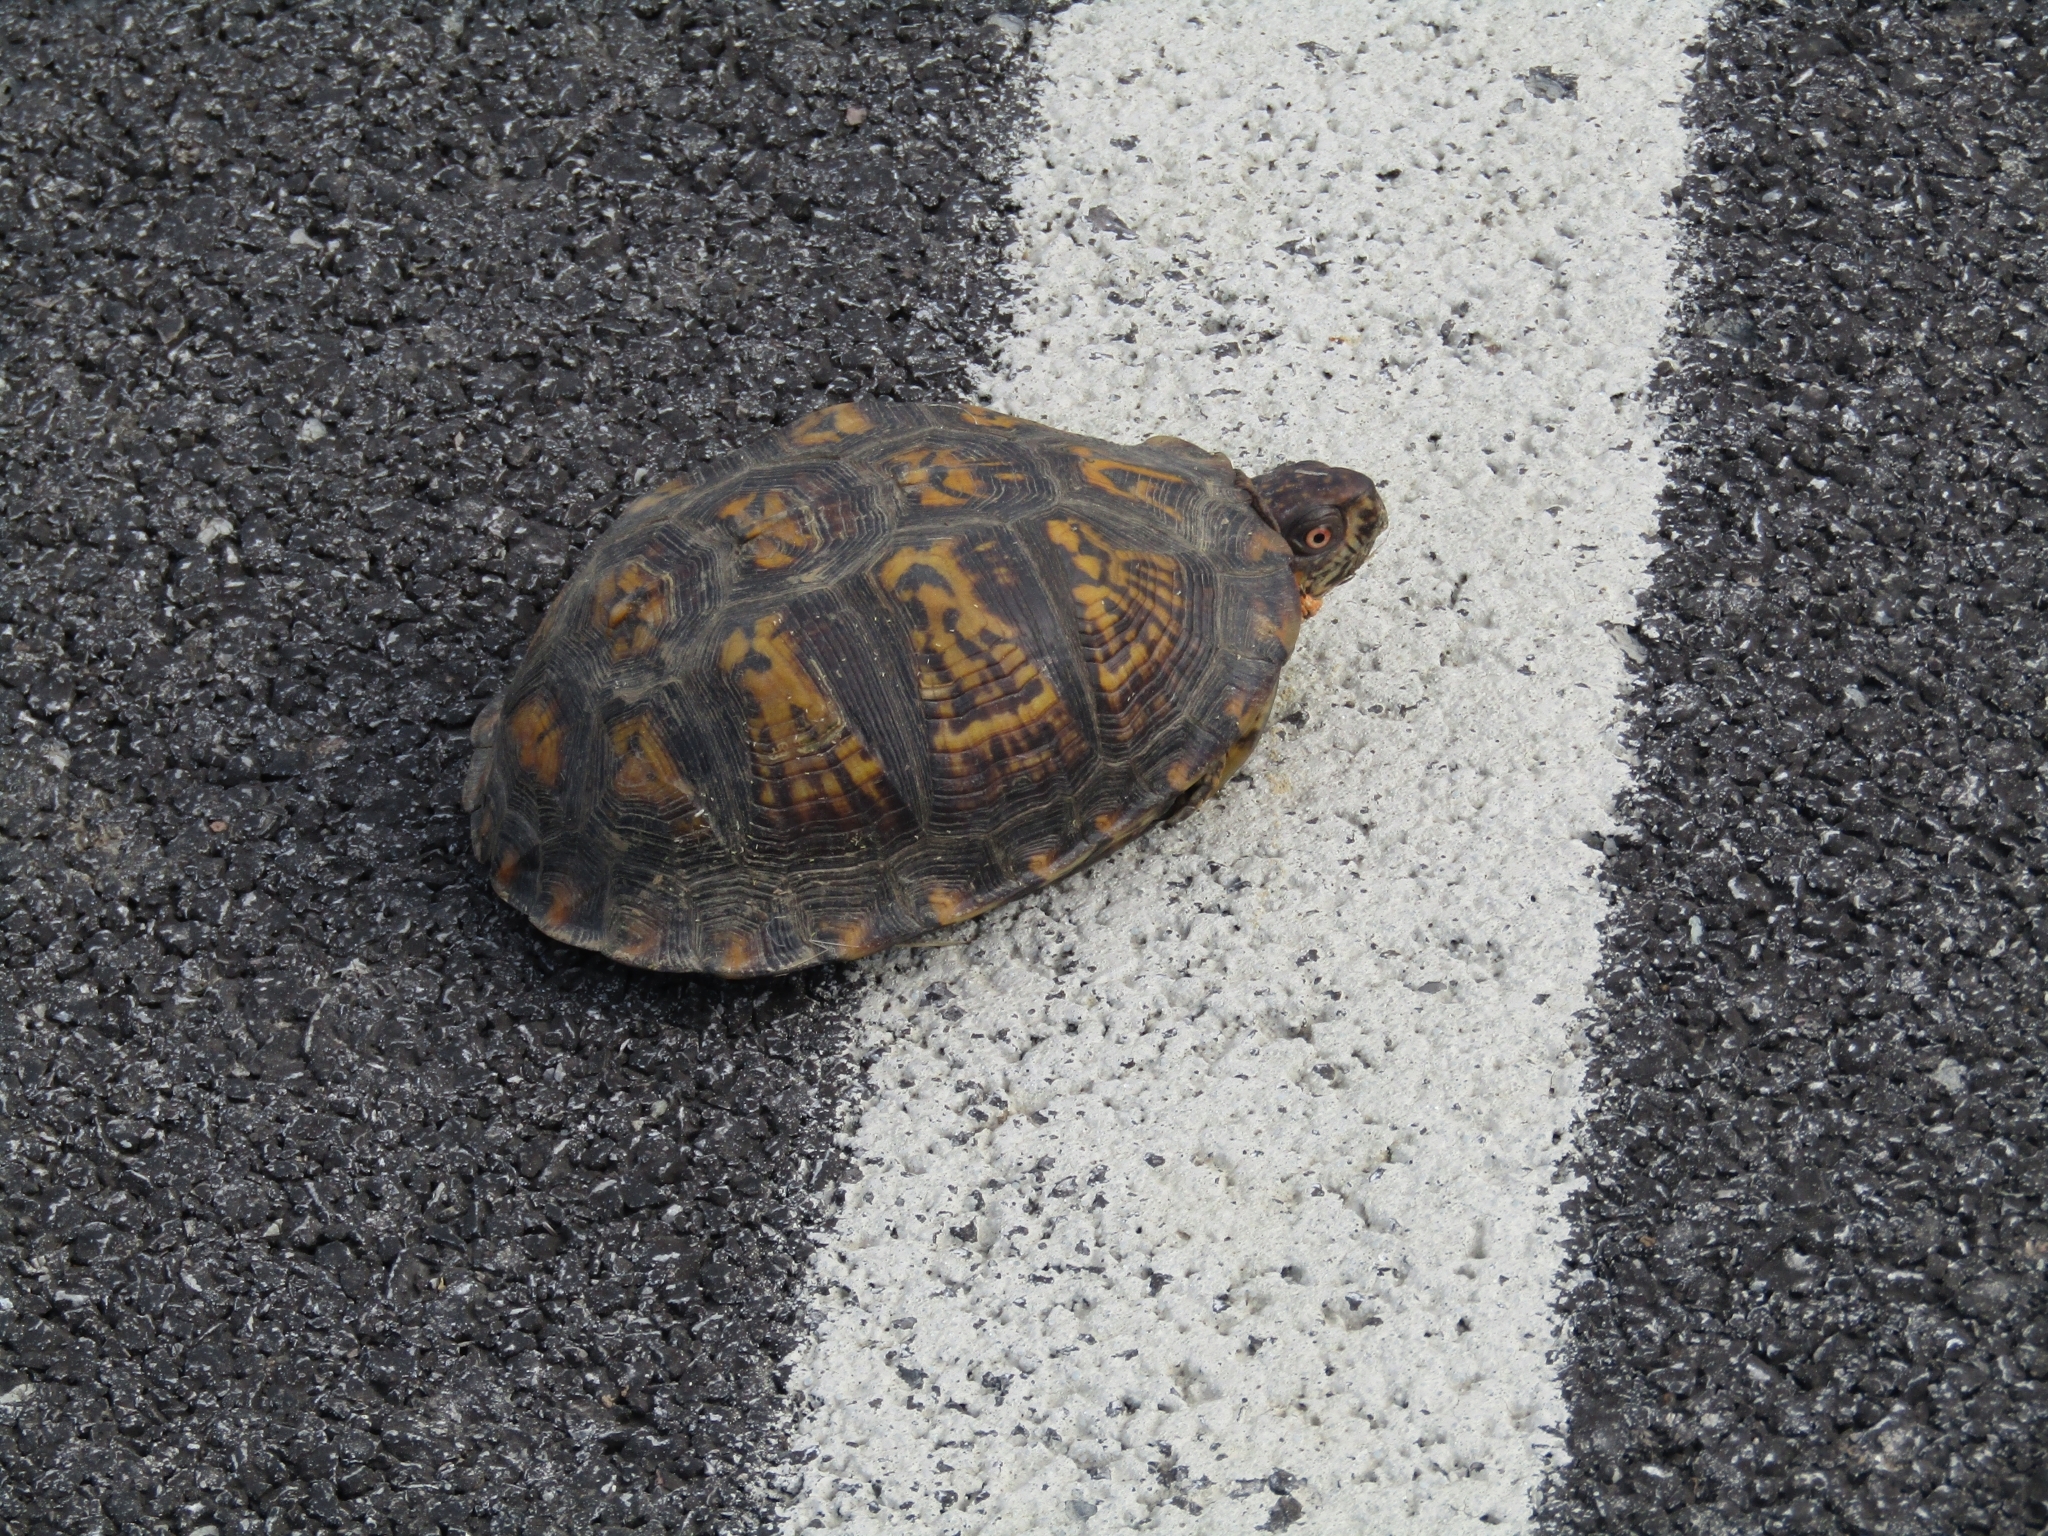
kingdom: Animalia
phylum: Chordata
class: Testudines
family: Emydidae
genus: Terrapene
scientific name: Terrapene carolina
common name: Common box turtle
